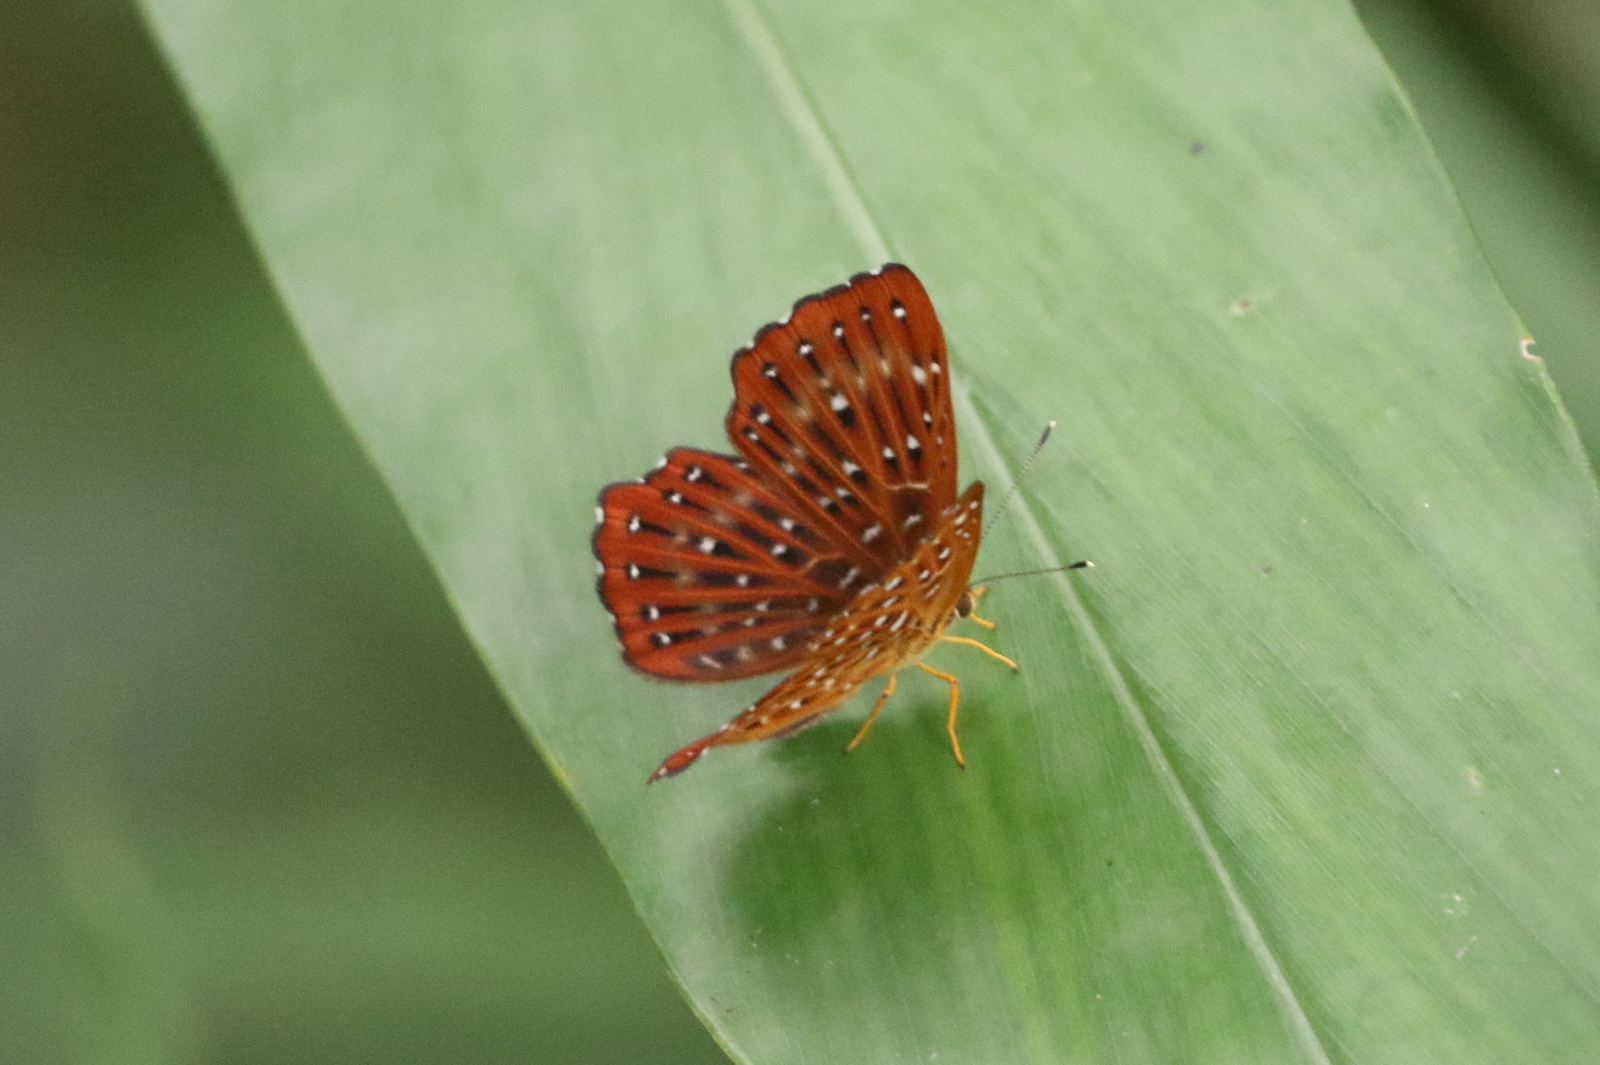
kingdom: Animalia
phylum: Arthropoda
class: Insecta
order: Lepidoptera
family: Riodinidae
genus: Zemeros
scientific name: Zemeros flegyas
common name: Punchinello
